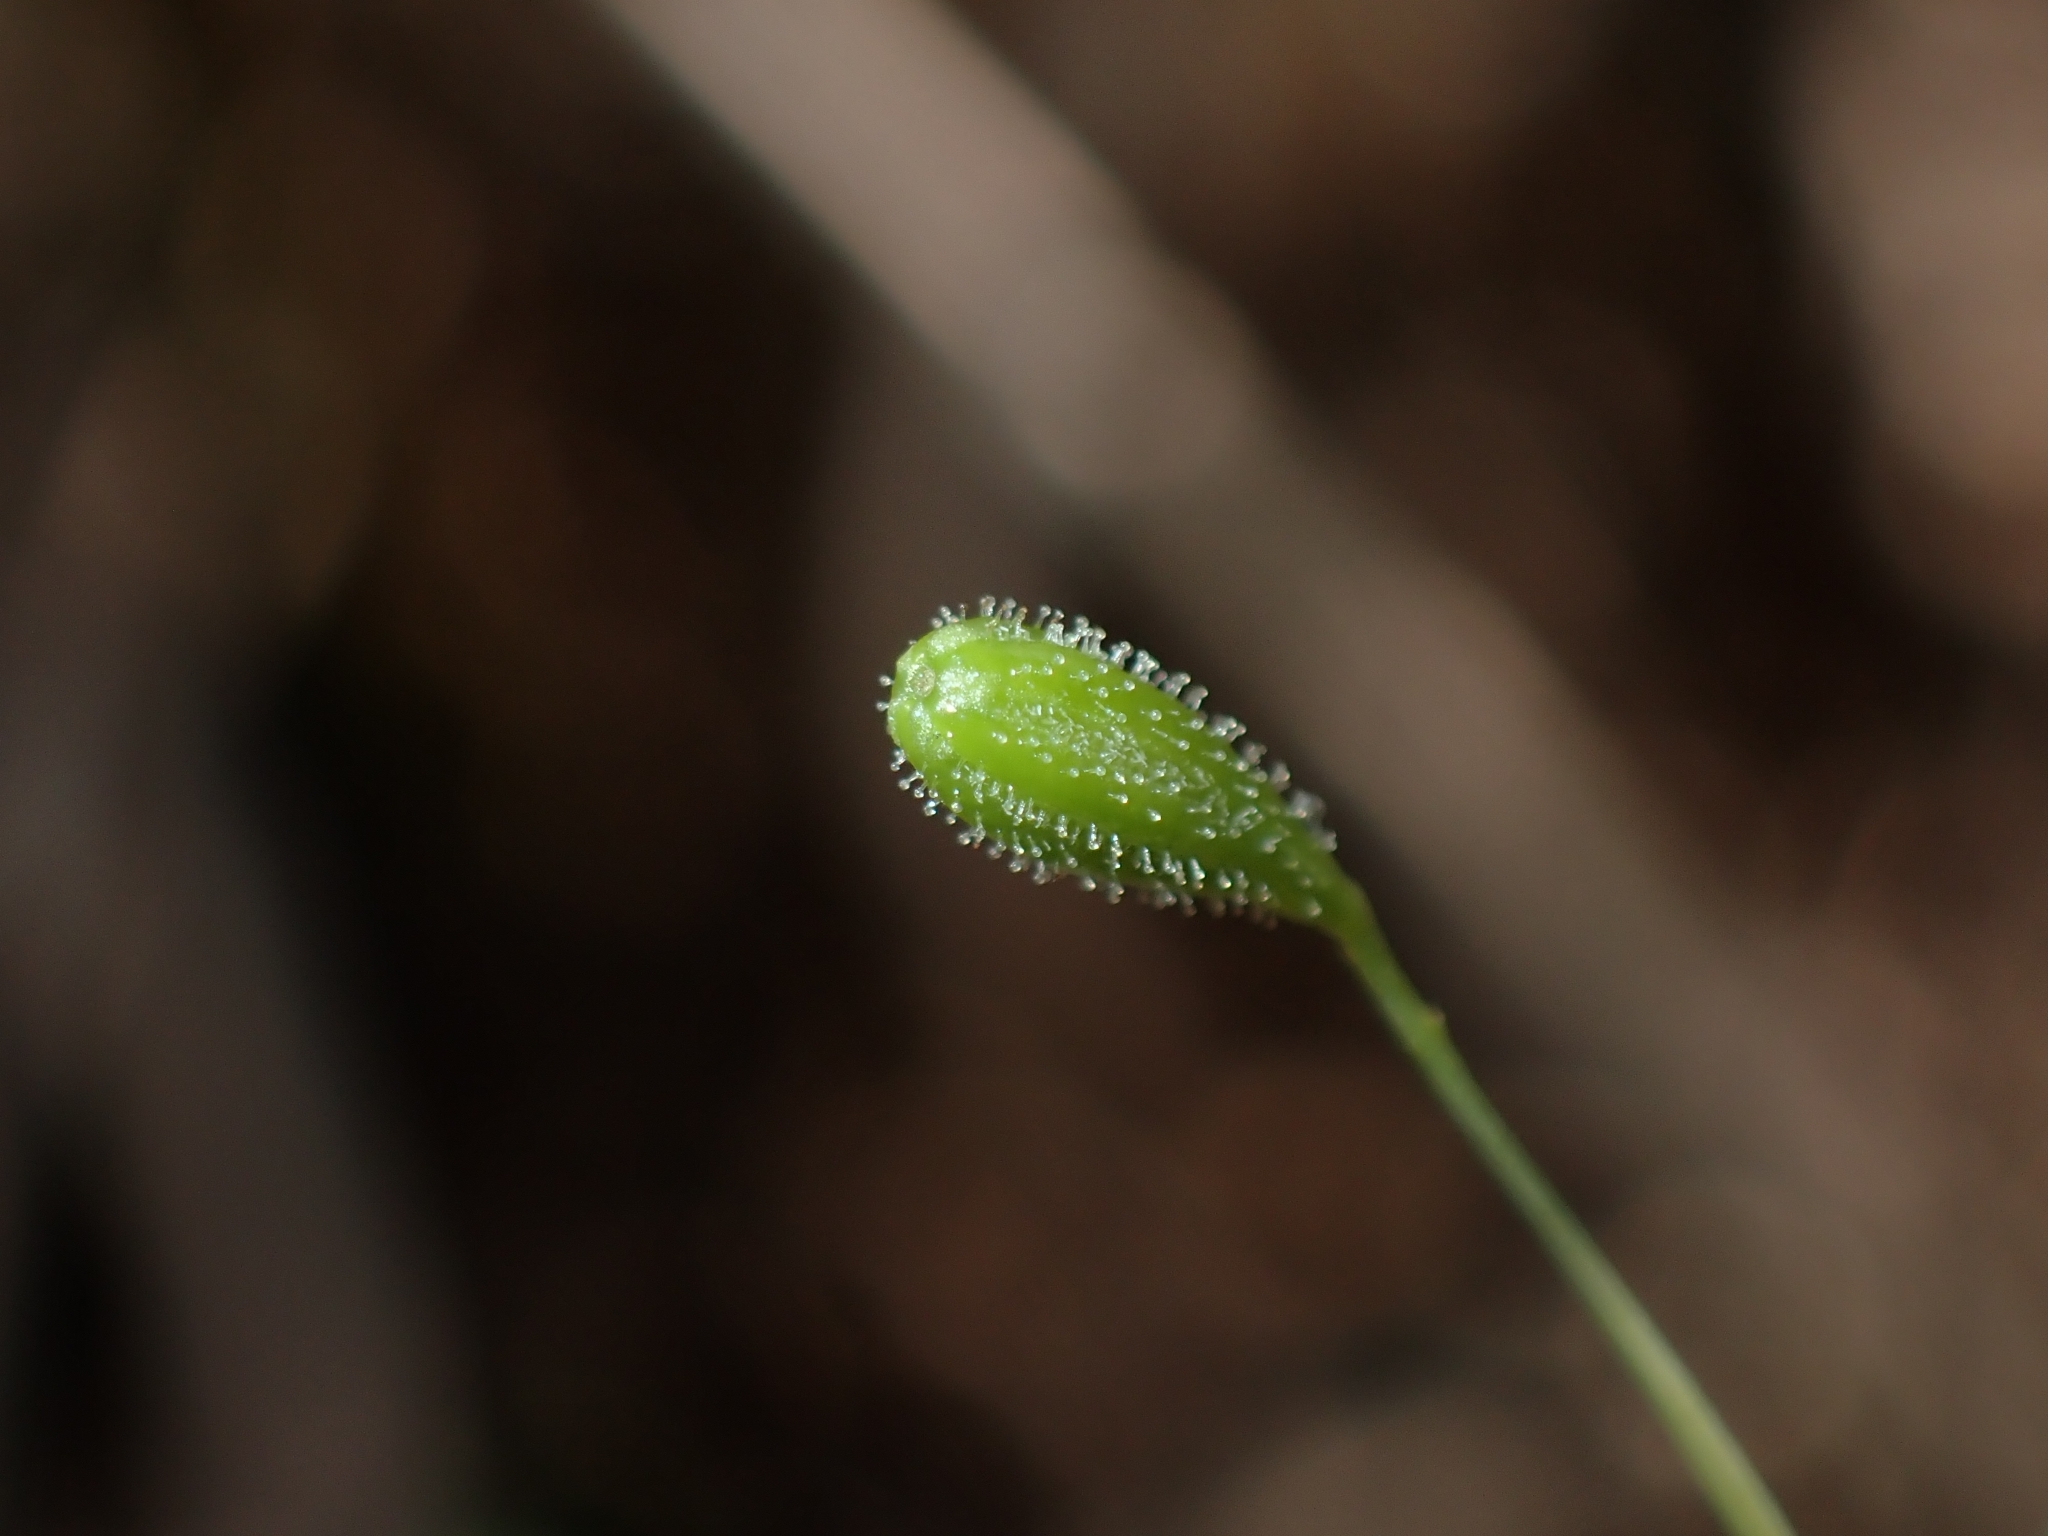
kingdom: Plantae
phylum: Tracheophyta
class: Magnoliopsida
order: Caryophyllales
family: Nyctaginaceae
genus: Boerhavia
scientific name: Boerhavia hualienensis
